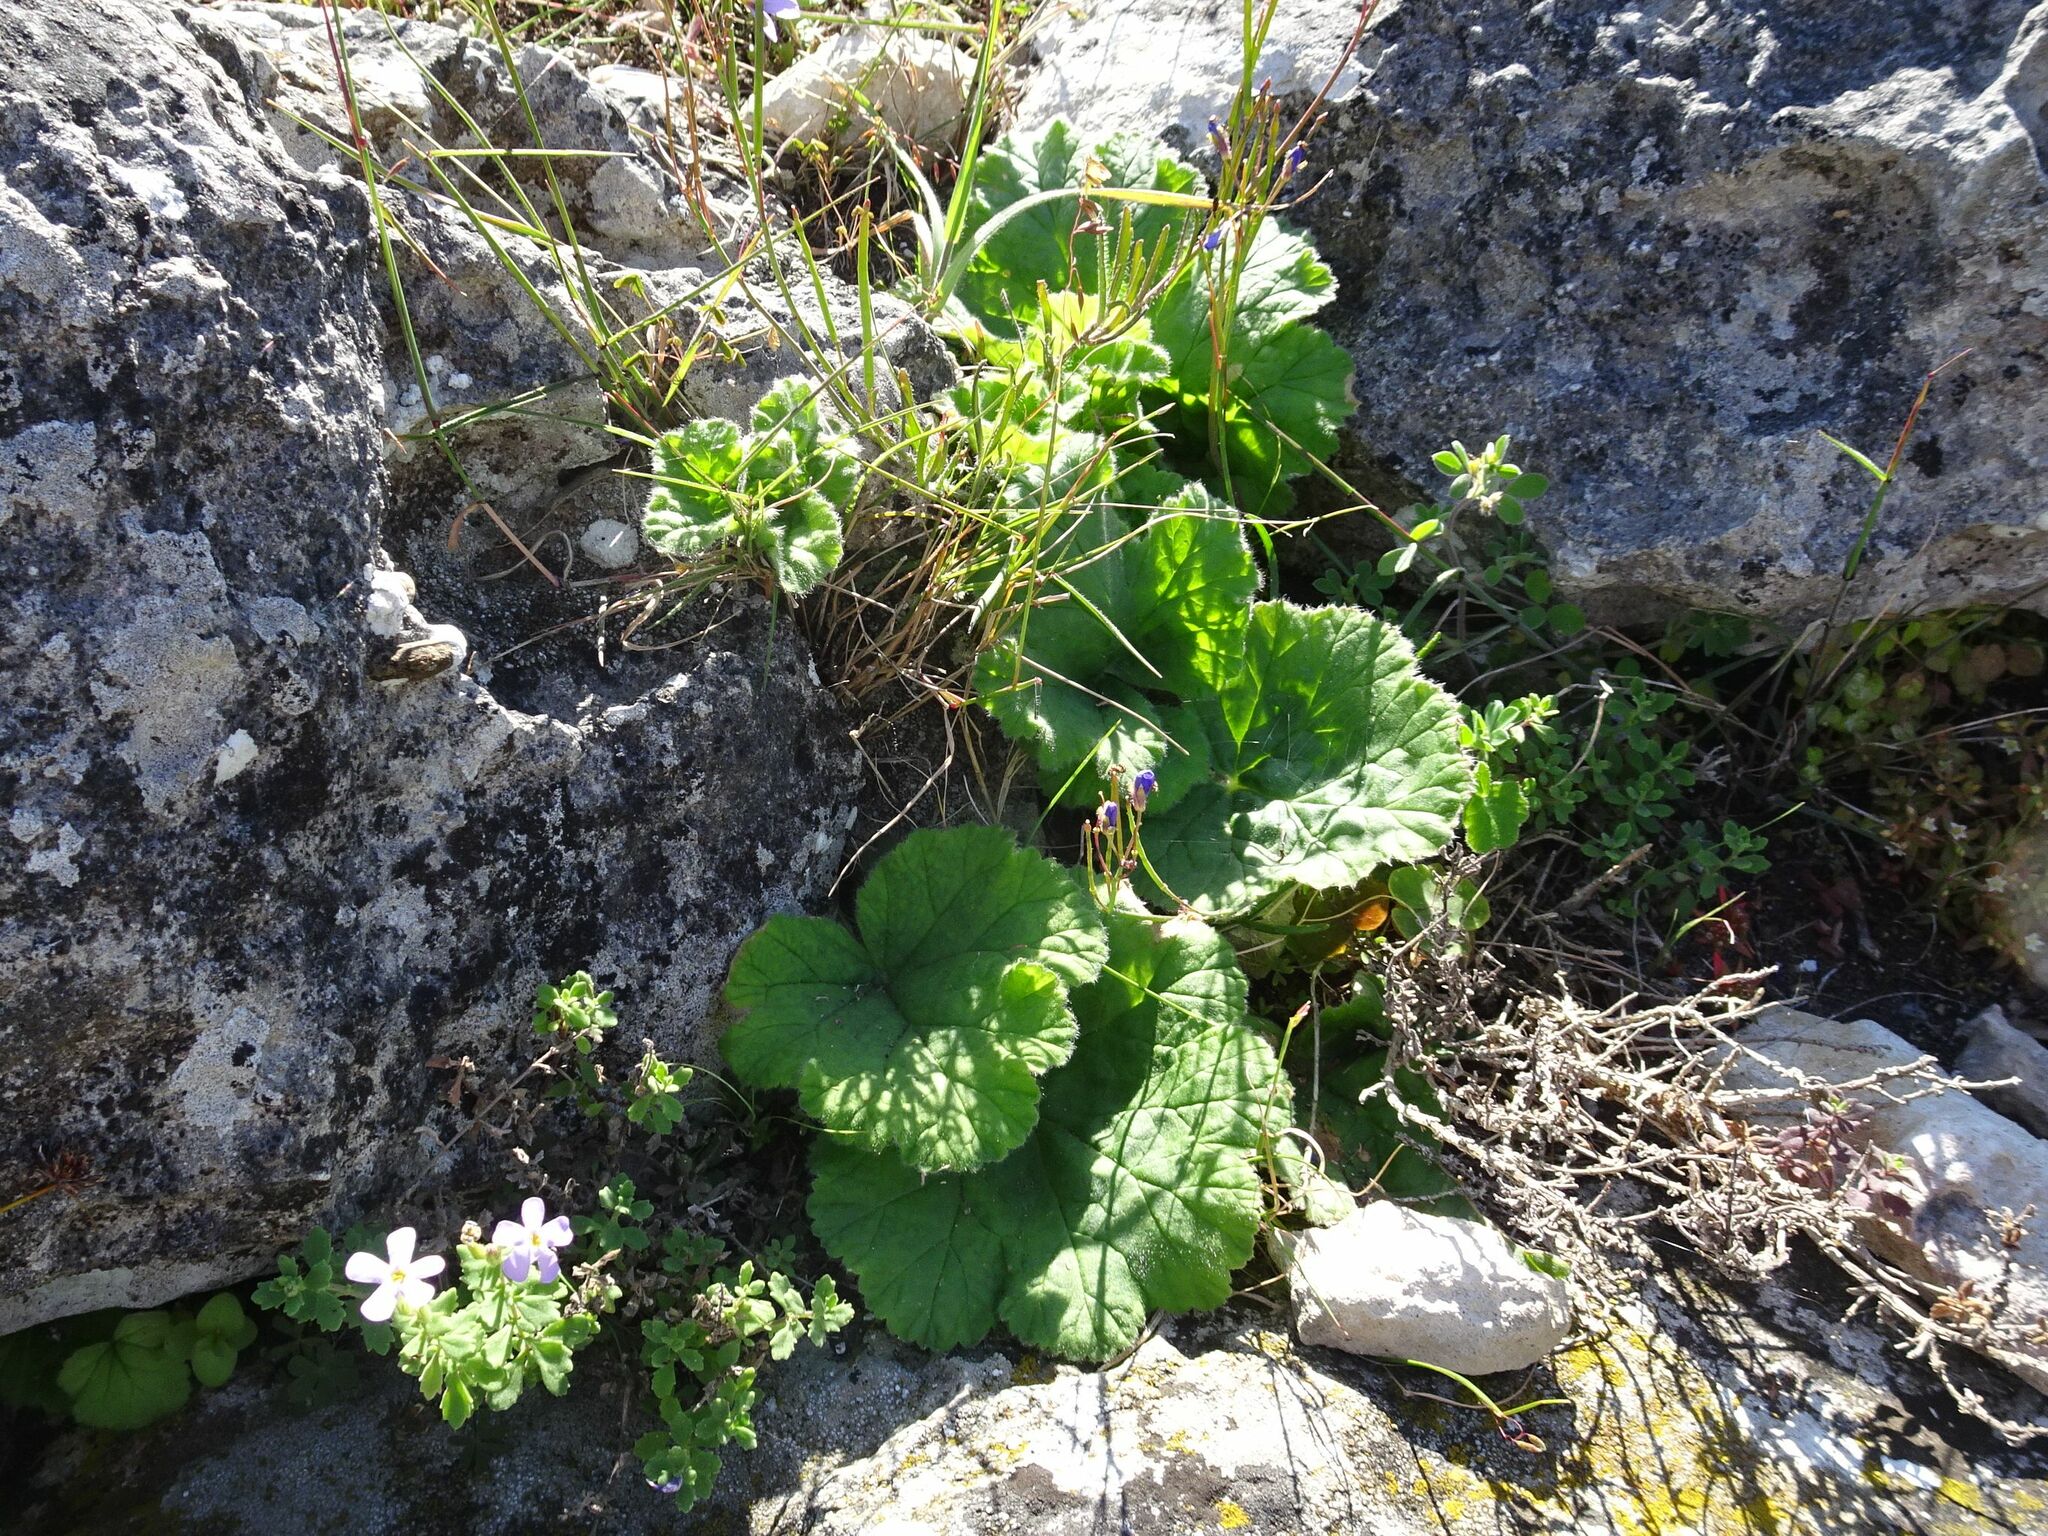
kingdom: Plantae
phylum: Tracheophyta
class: Magnoliopsida
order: Geraniales
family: Geraniaceae
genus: Pelargonium
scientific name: Pelargonium lobatum
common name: Vine-leaf pelargonium
